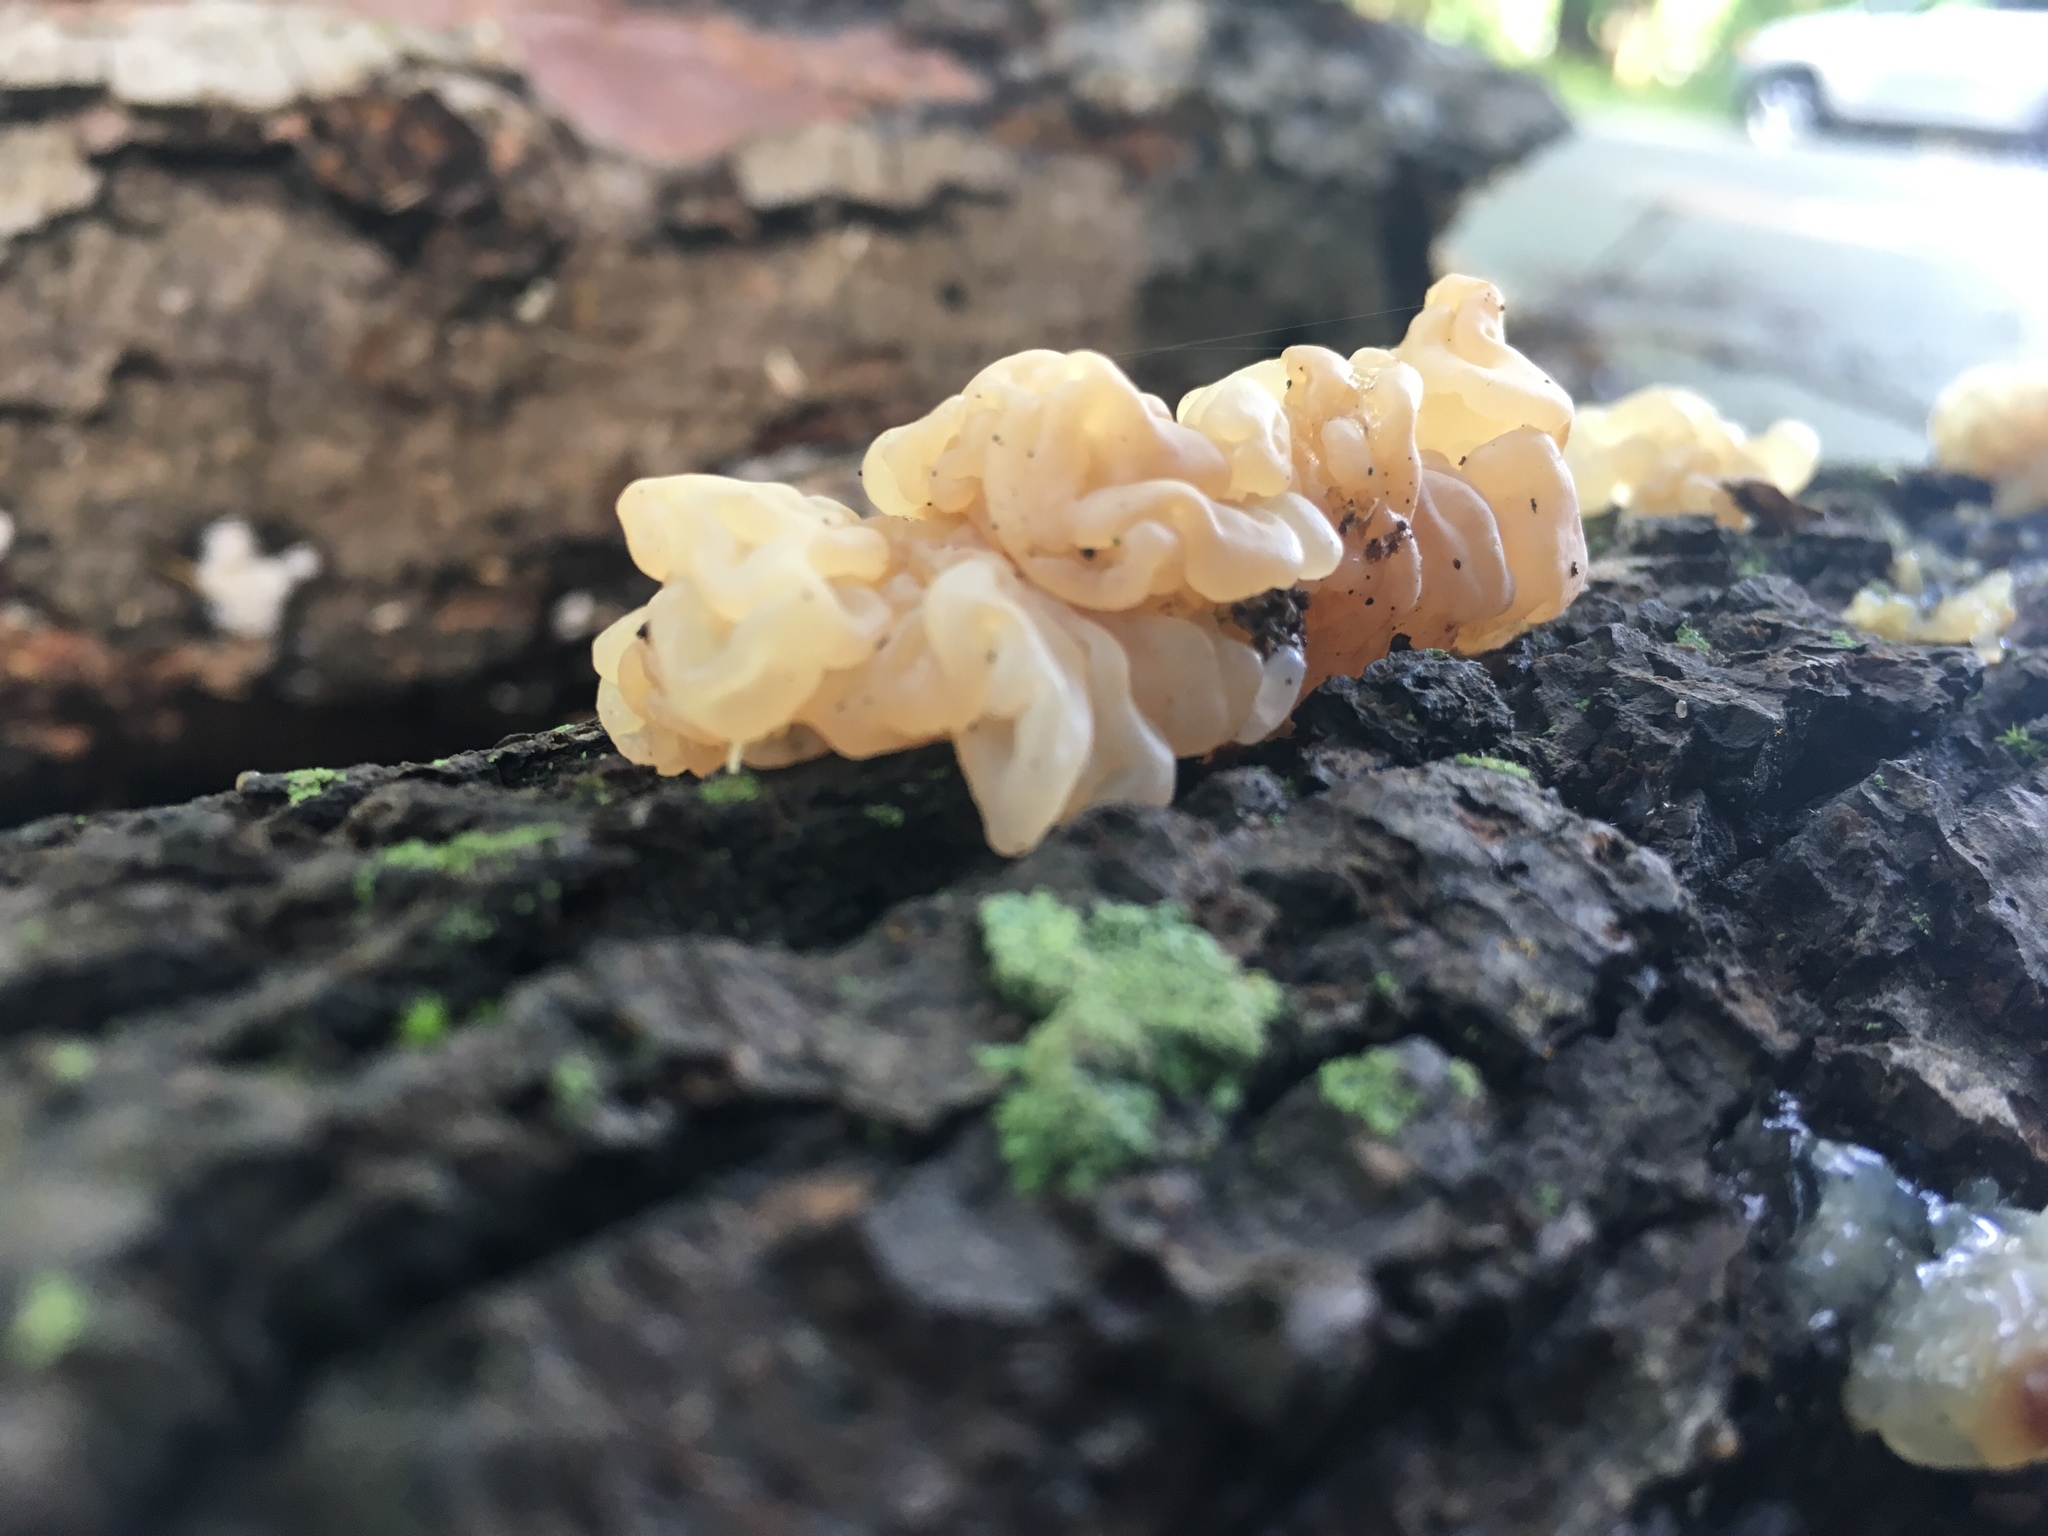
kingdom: Fungi
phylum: Basidiomycota
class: Agaricomycetes
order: Auriculariales
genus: Ductifera
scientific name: Ductifera pululahuana
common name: White jelly fungus
